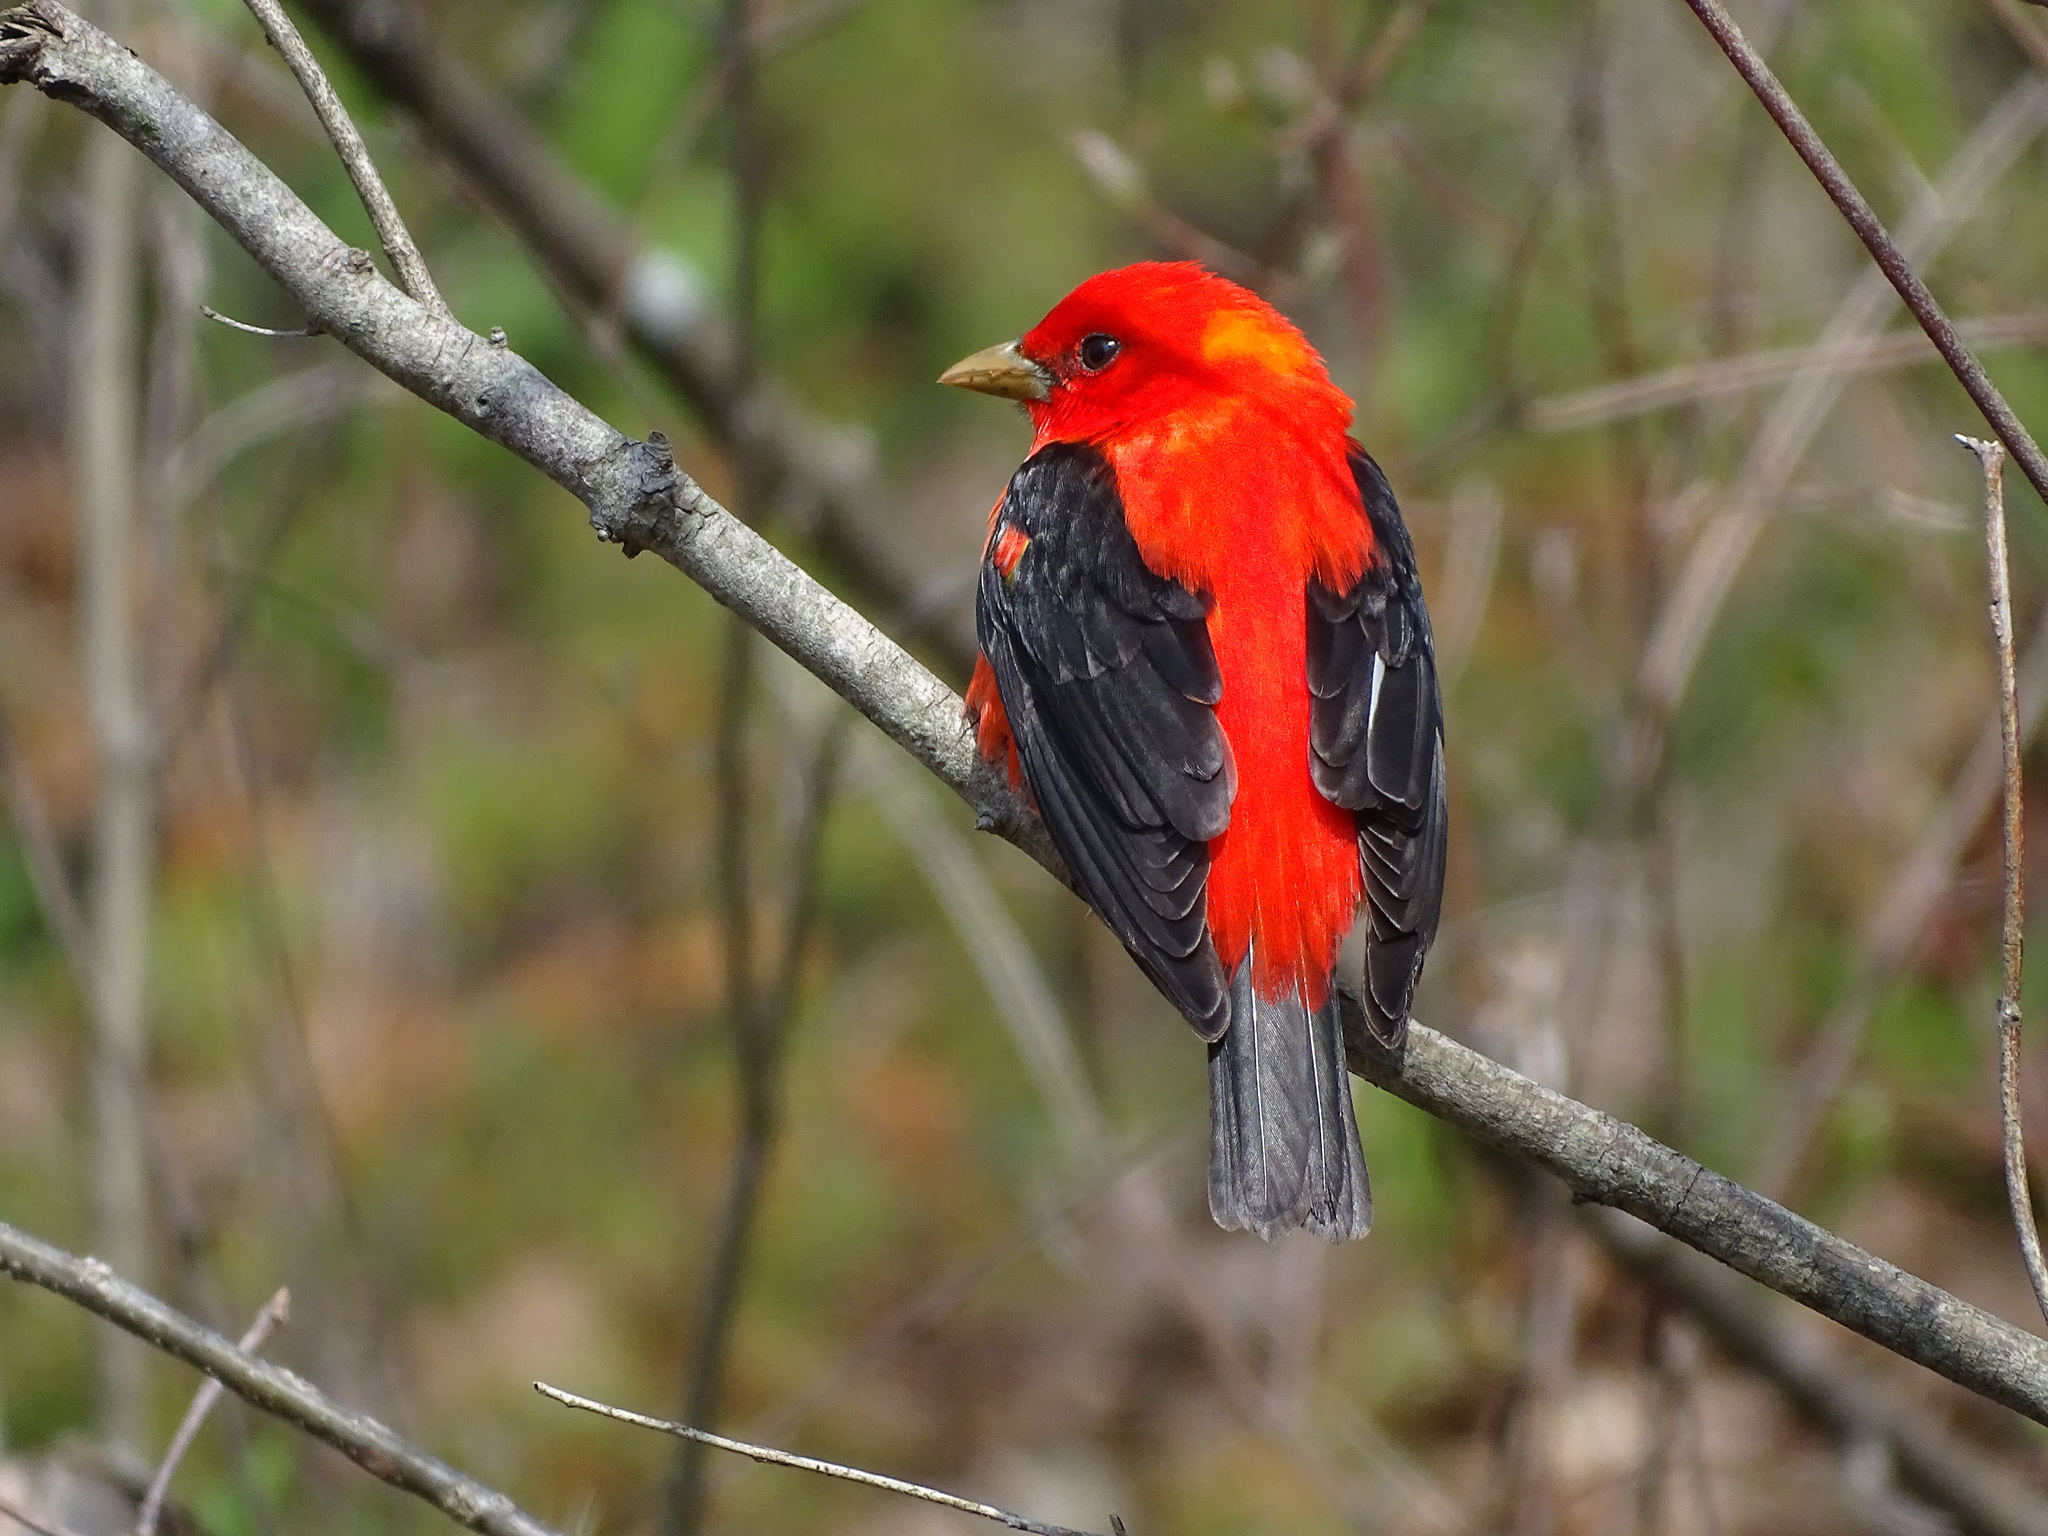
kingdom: Animalia
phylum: Chordata
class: Aves
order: Passeriformes
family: Cardinalidae
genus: Piranga
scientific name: Piranga olivacea
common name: Scarlet tanager
